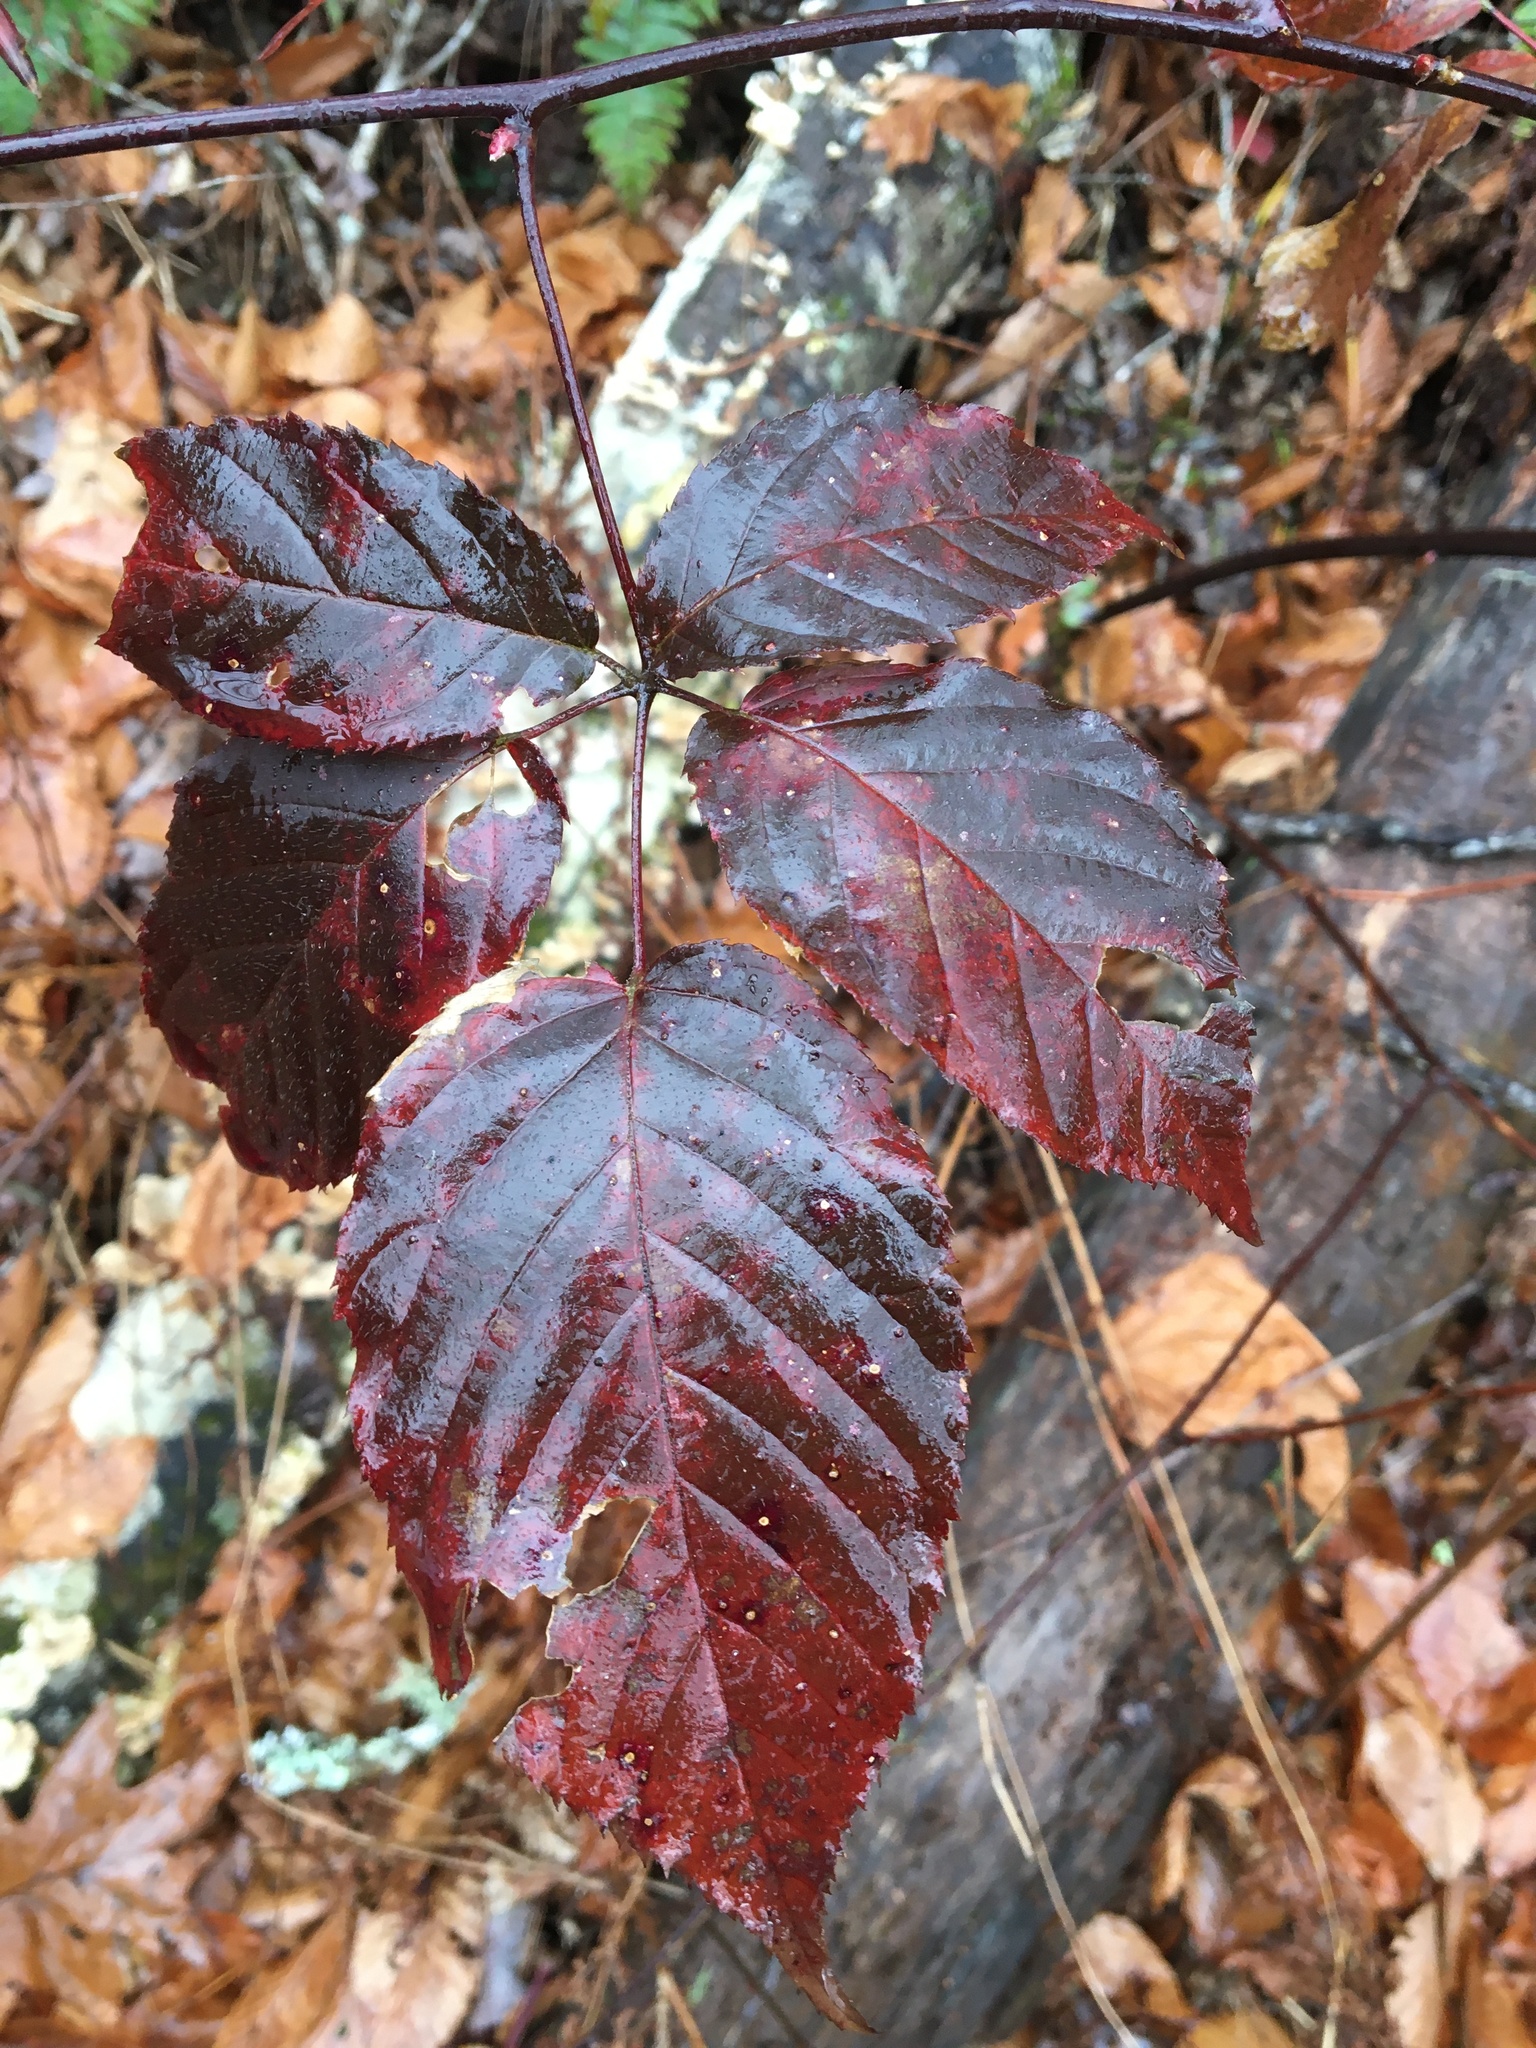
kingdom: Plantae
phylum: Tracheophyta
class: Magnoliopsida
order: Rosales
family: Rosaceae
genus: Rubus
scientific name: Rubus allegheniensis
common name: Allegheny blackberry
